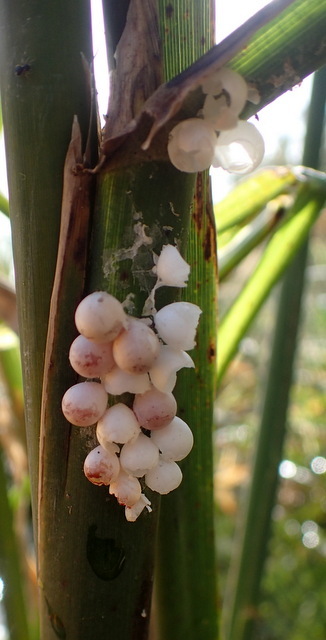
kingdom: Animalia
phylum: Mollusca
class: Gastropoda
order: Architaenioglossa
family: Ampullariidae
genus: Pomacea
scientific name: Pomacea paludosa
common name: Florida applesnail
